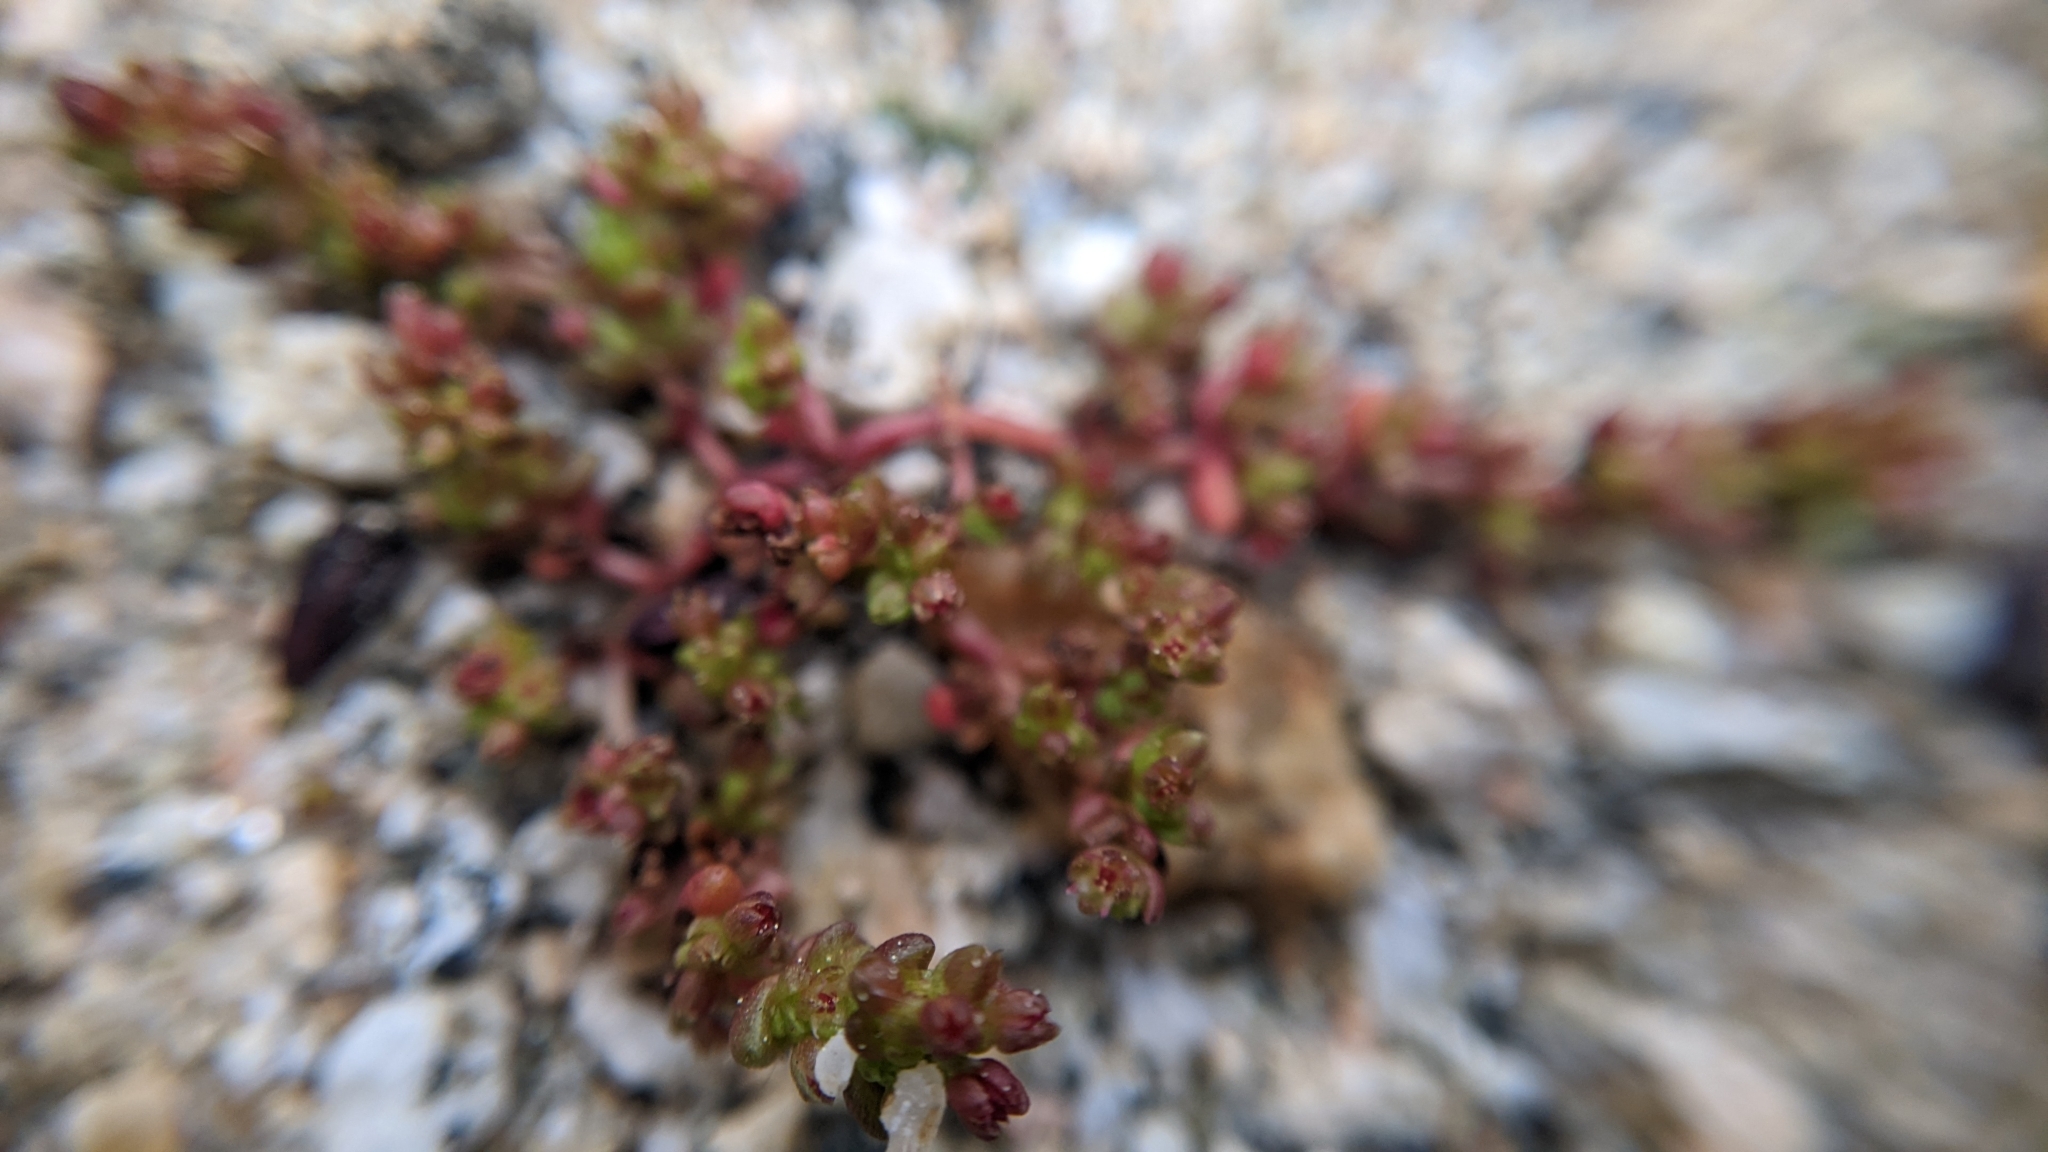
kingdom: Plantae
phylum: Tracheophyta
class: Magnoliopsida
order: Saxifragales
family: Crassulaceae
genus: Crassula
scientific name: Crassula connata
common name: Erect pygmyweed
